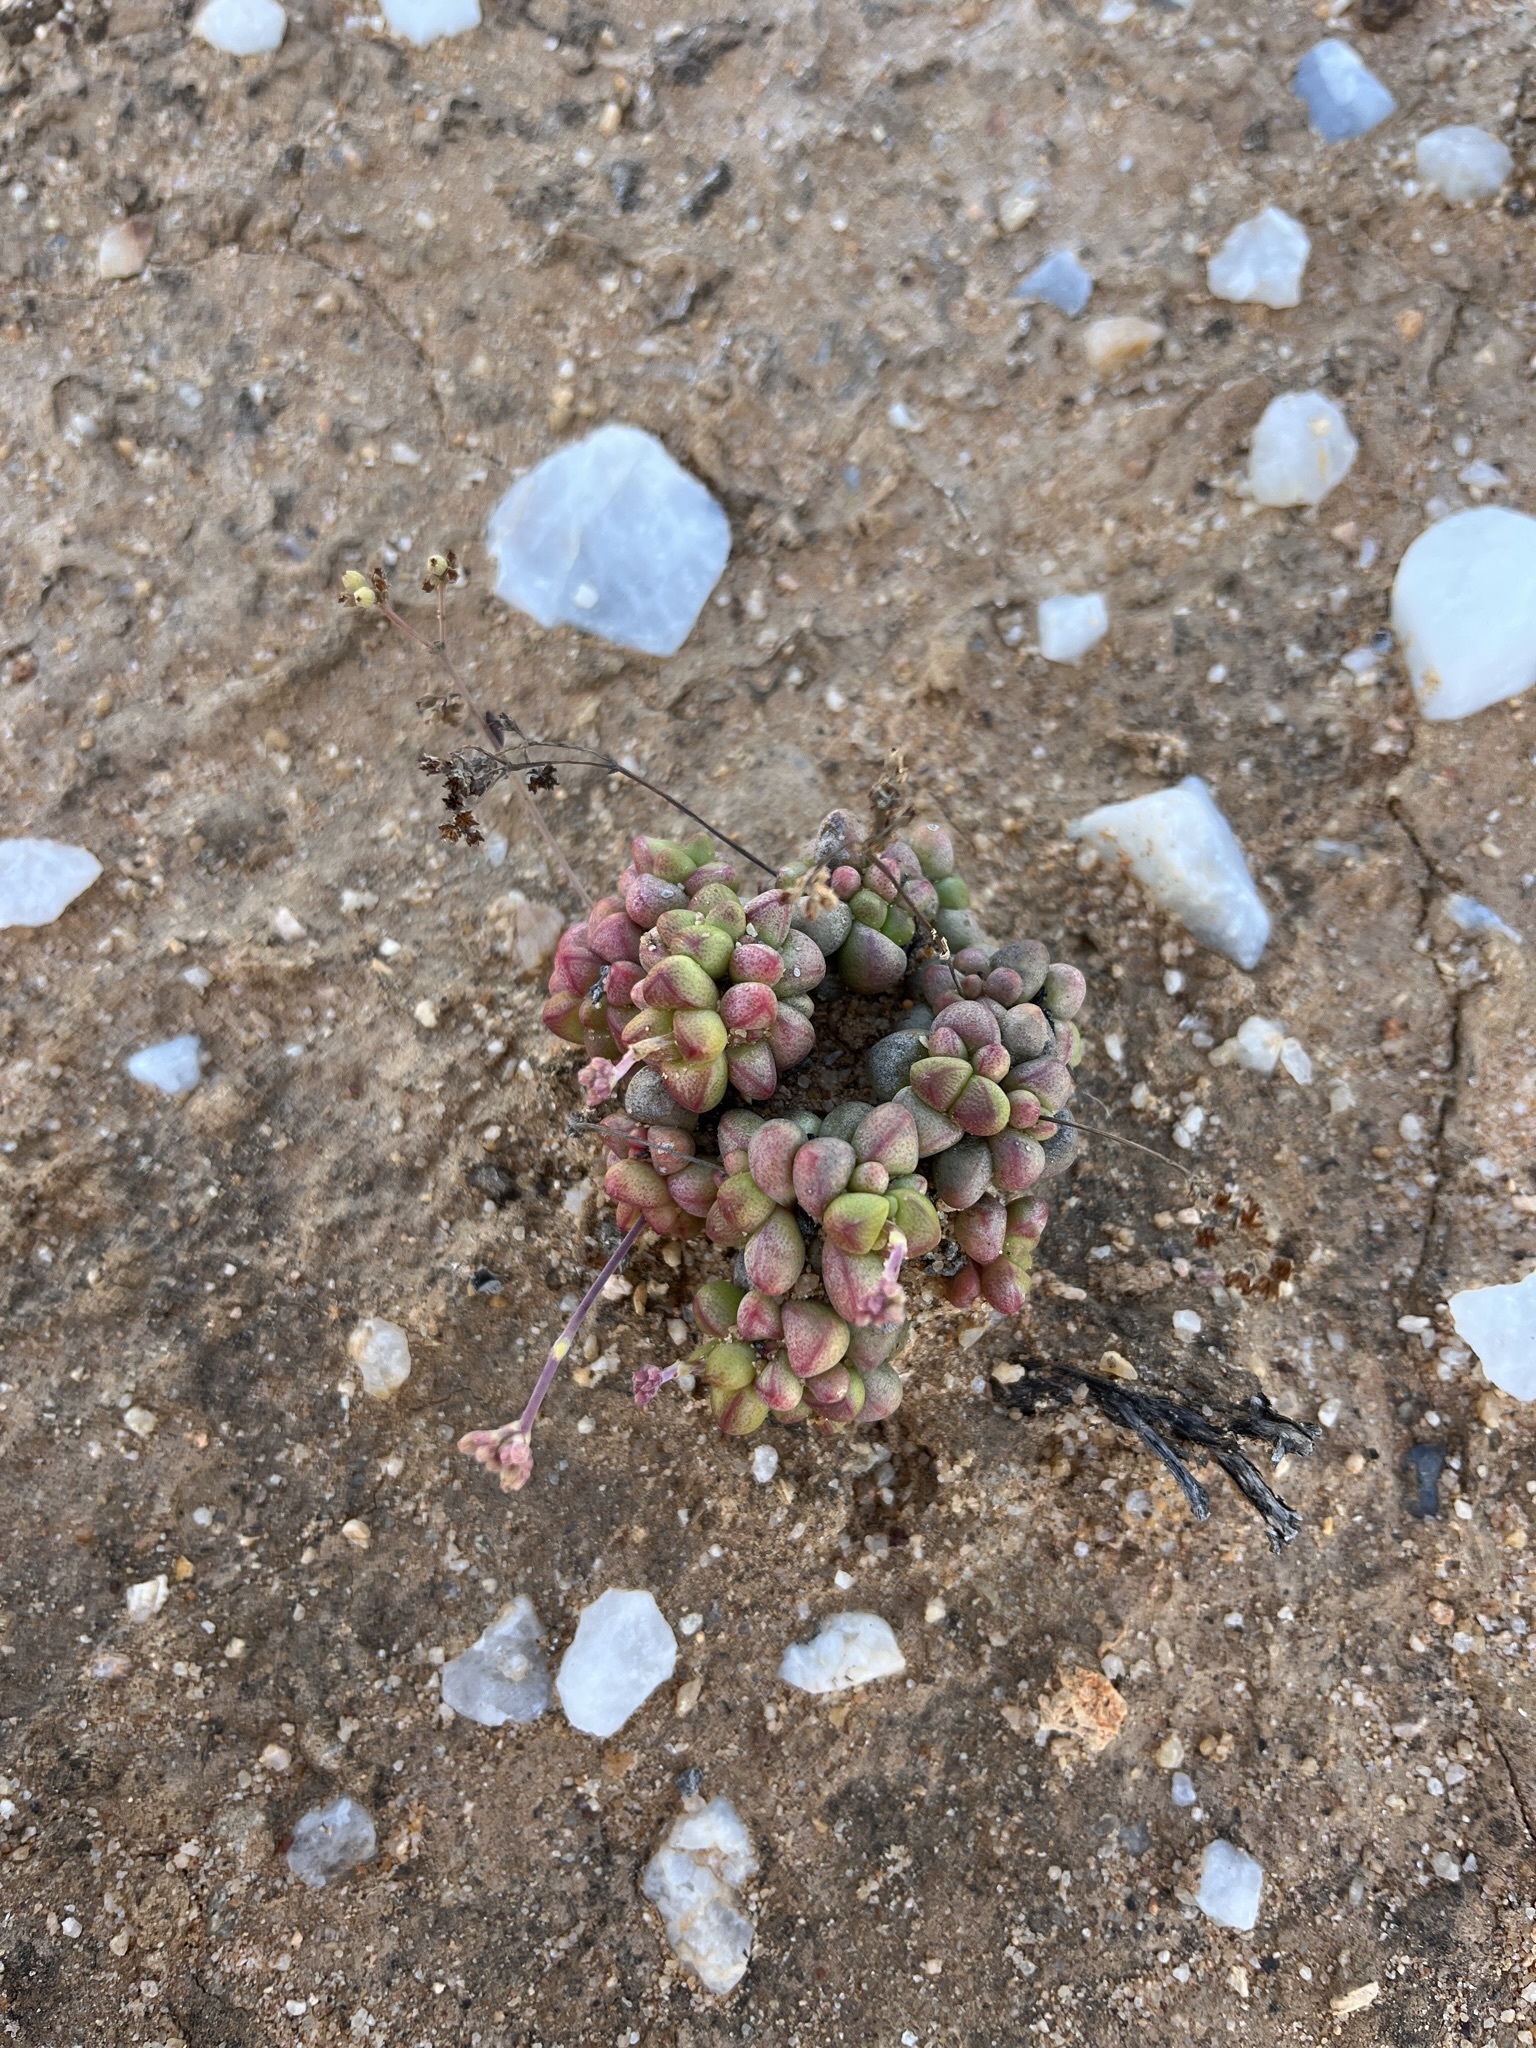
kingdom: Plantae
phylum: Tracheophyta
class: Magnoliopsida
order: Saxifragales
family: Crassulaceae
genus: Crassula
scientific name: Crassula elegans
